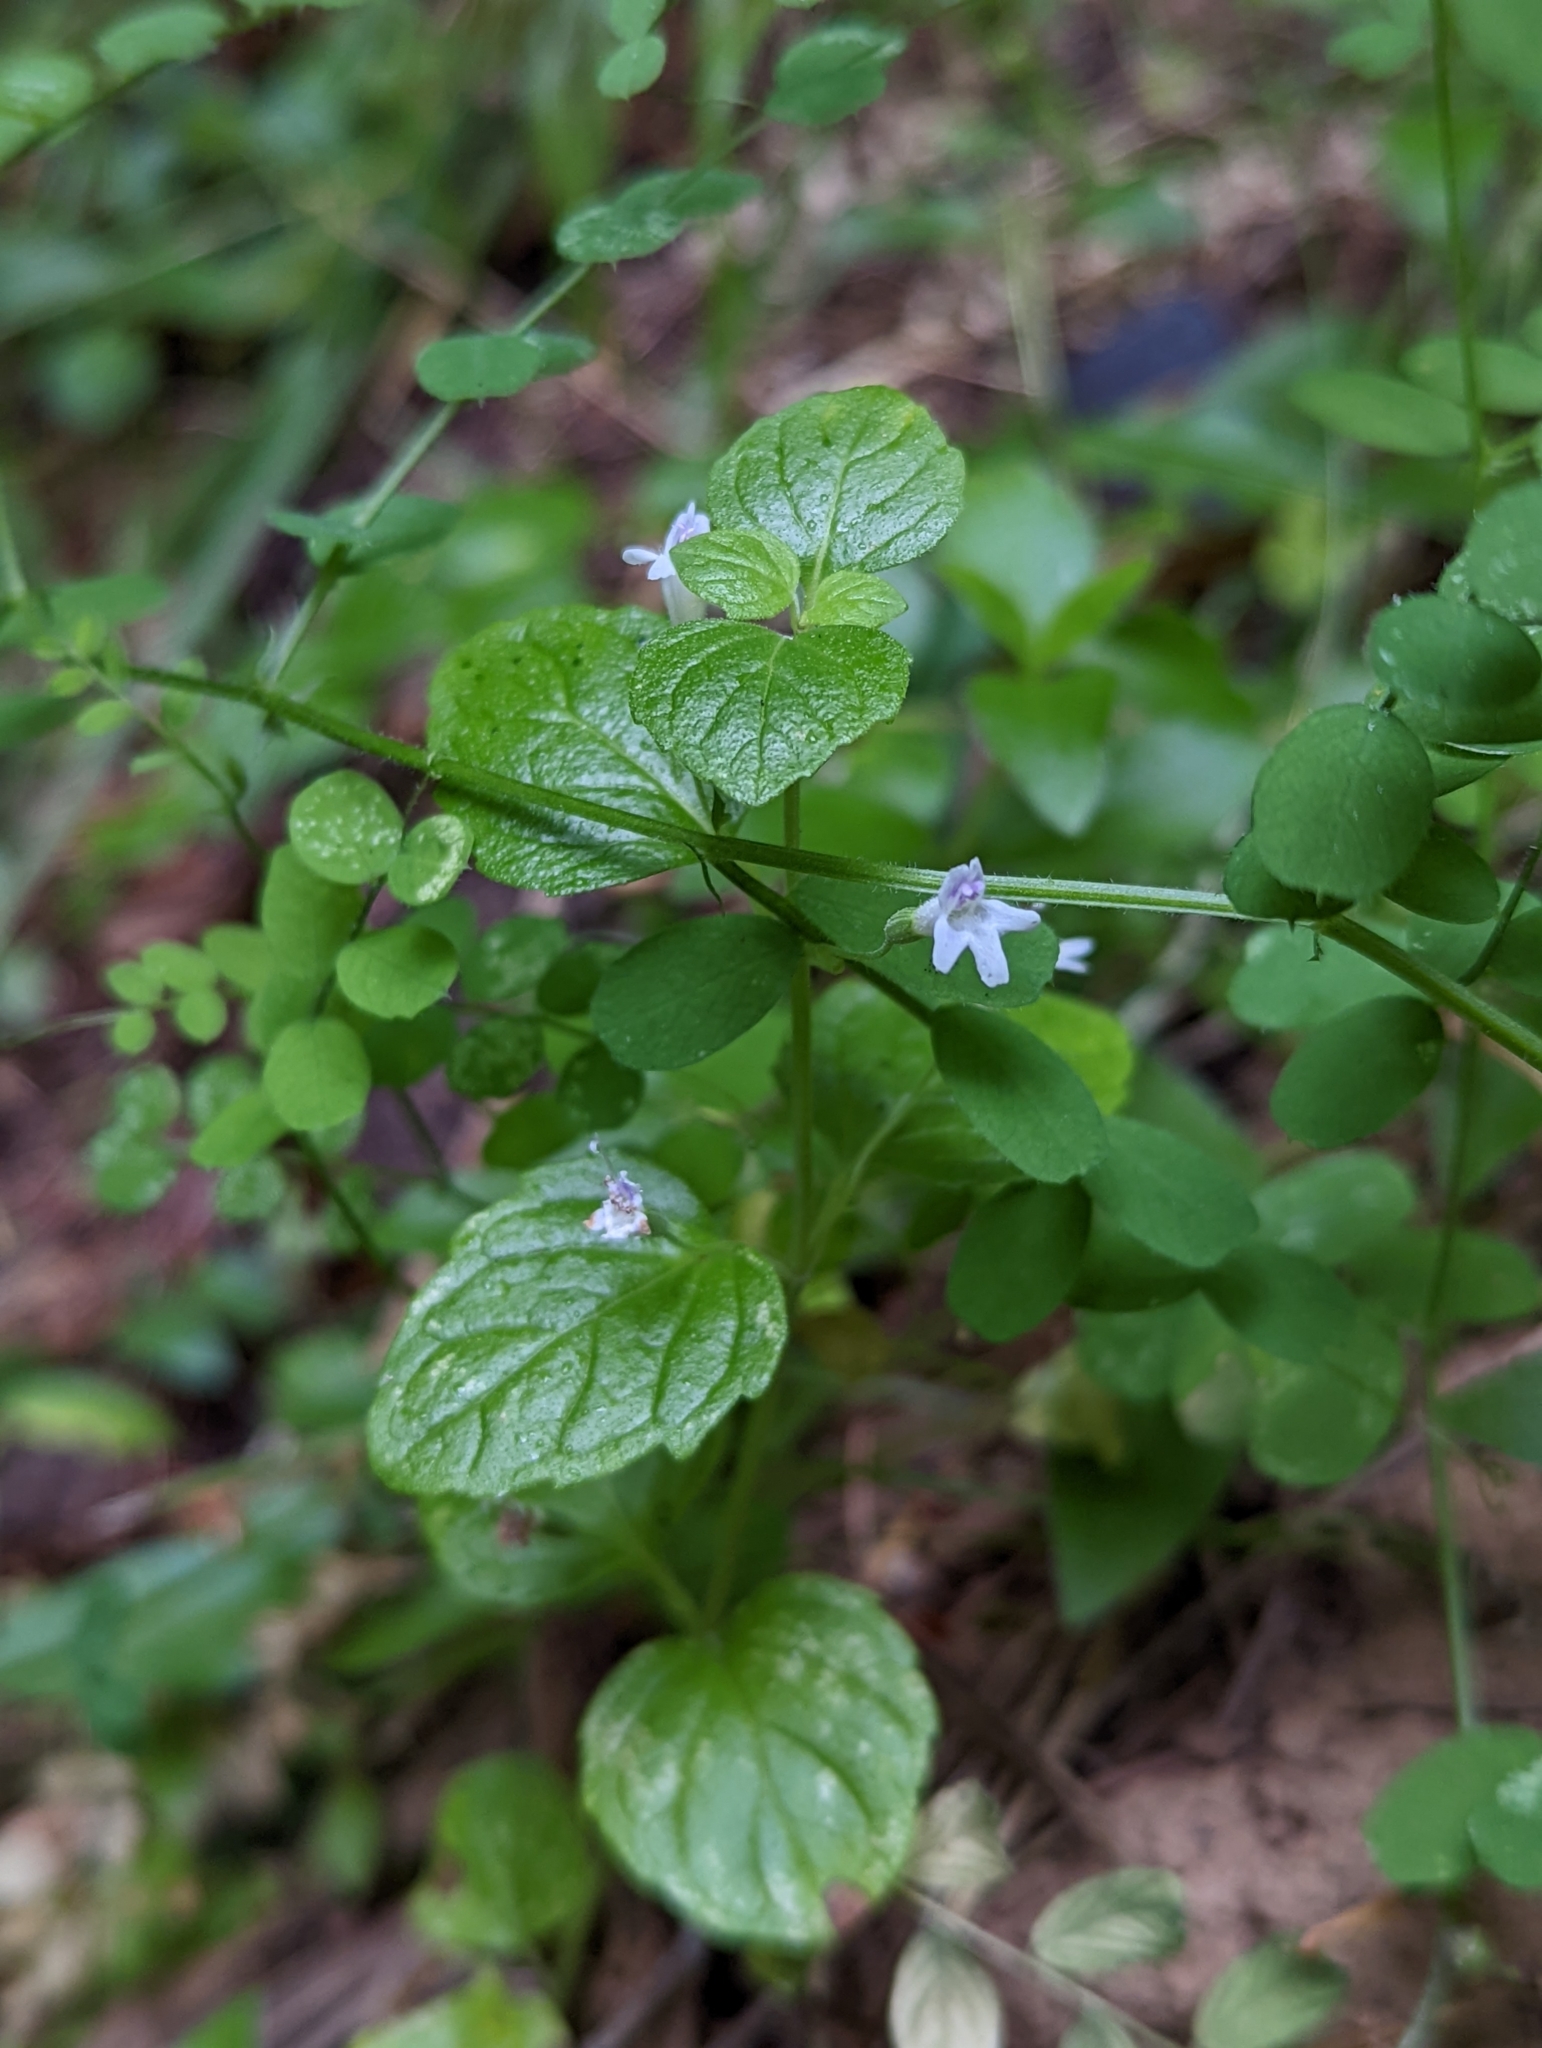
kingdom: Plantae
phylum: Tracheophyta
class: Magnoliopsida
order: Lamiales
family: Lamiaceae
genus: Micromeria
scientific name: Micromeria douglasii
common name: Yerba buena
